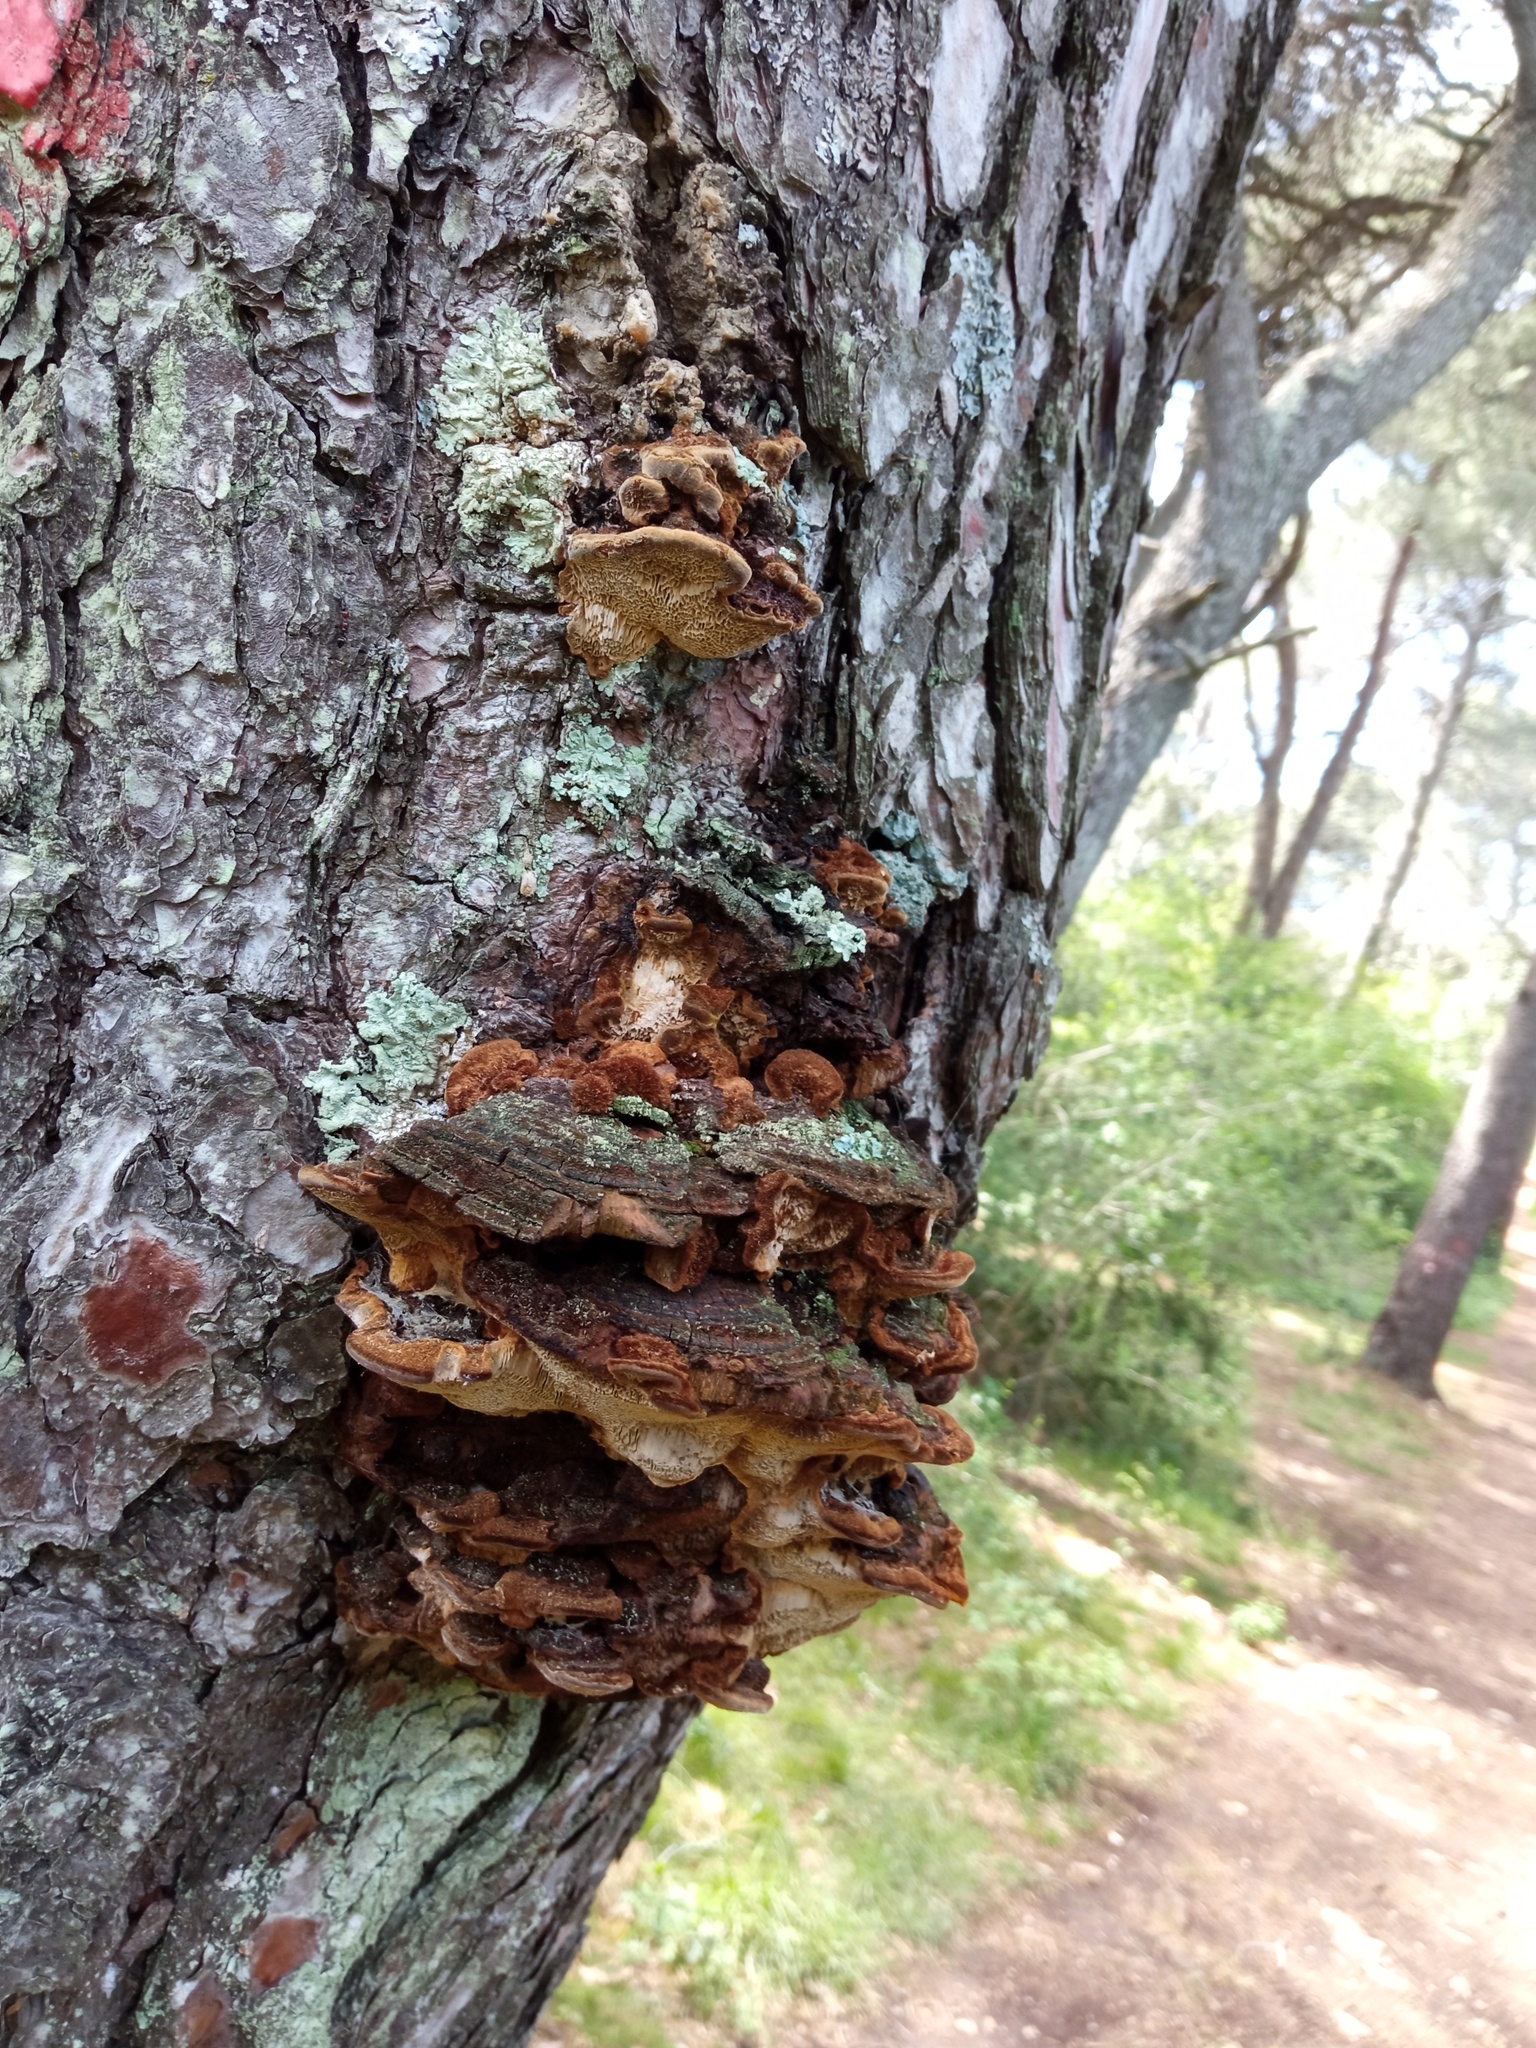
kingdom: Fungi
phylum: Basidiomycota
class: Agaricomycetes
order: Hymenochaetales
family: Hymenochaetaceae
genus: Porodaedalea
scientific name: Porodaedalea pini
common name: Pine bracket
